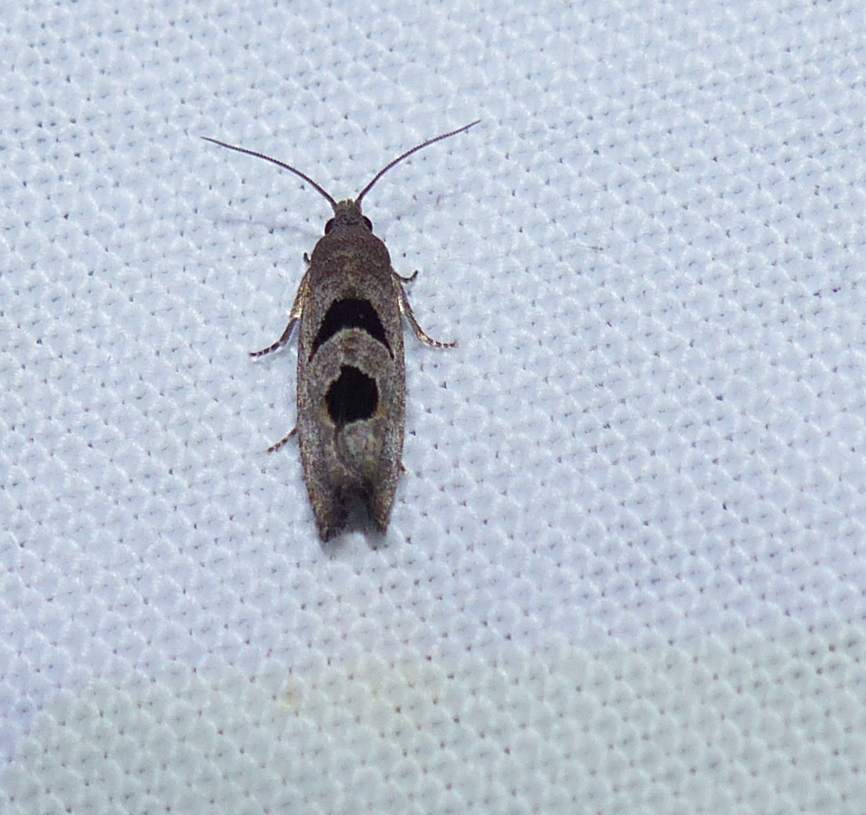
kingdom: Animalia
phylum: Arthropoda
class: Insecta
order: Lepidoptera
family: Tortricidae
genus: Eucosma
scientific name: Eucosma tomonana
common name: Aster-head eucosma moth
